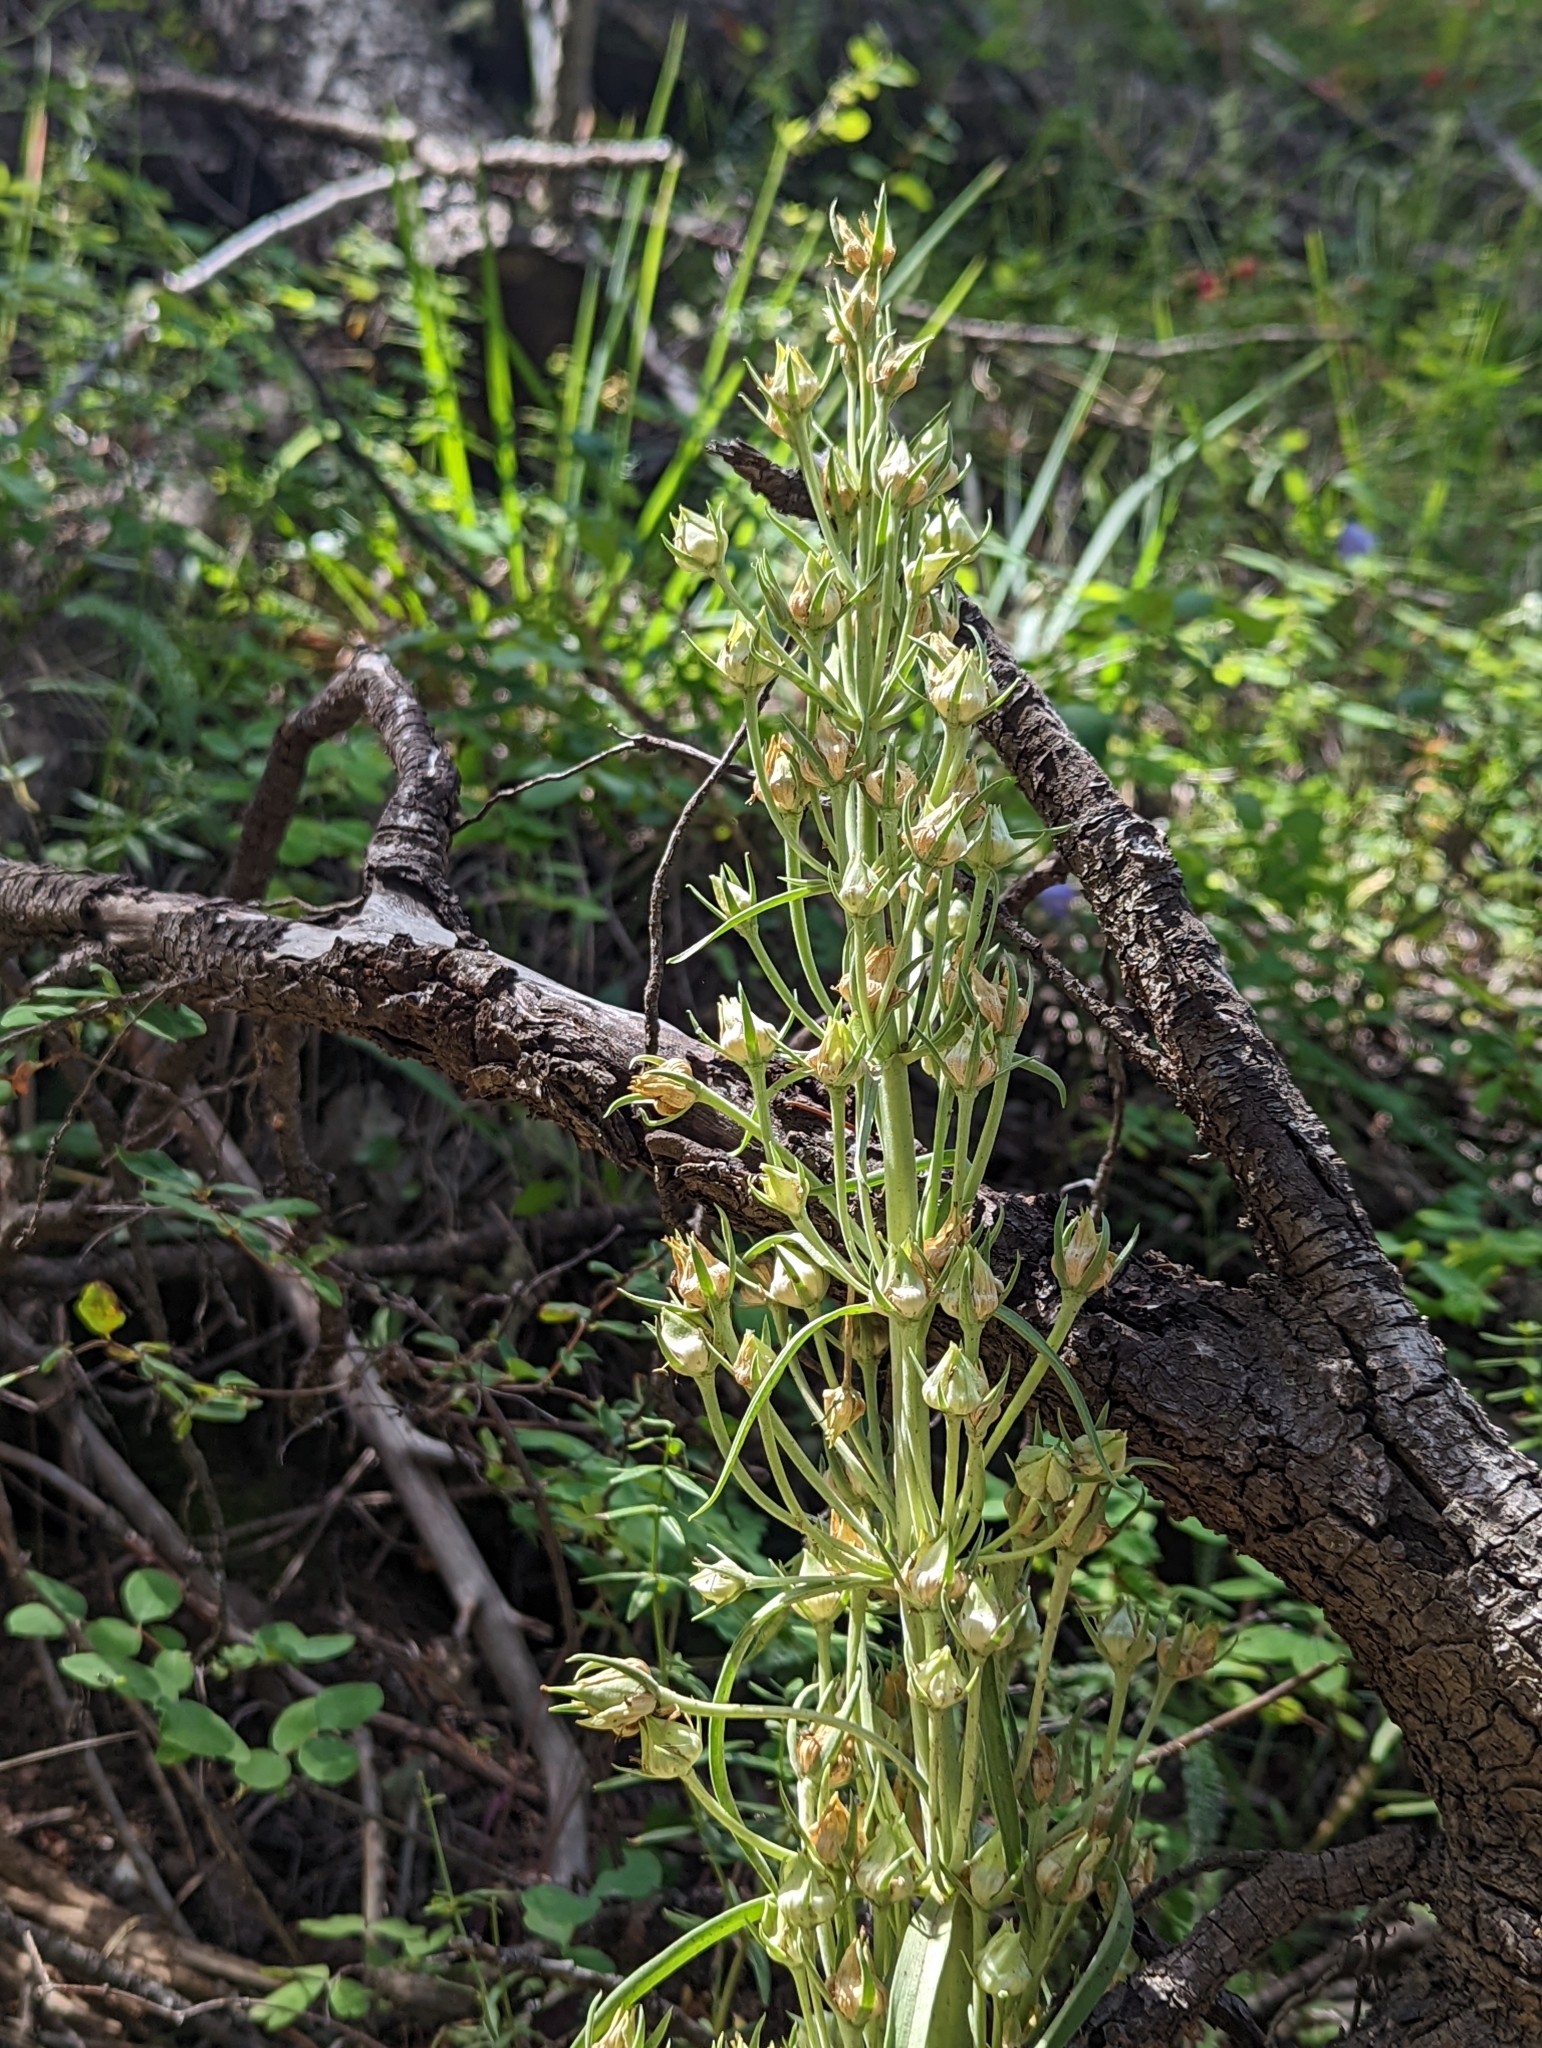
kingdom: Plantae
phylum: Tracheophyta
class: Magnoliopsida
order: Gentianales
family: Gentianaceae
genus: Frasera
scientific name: Frasera speciosa
